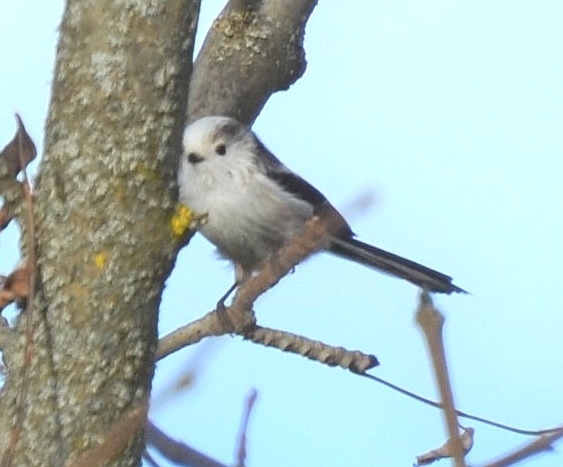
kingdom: Animalia
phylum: Chordata
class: Aves
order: Passeriformes
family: Aegithalidae
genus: Aegithalos
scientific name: Aegithalos caudatus
